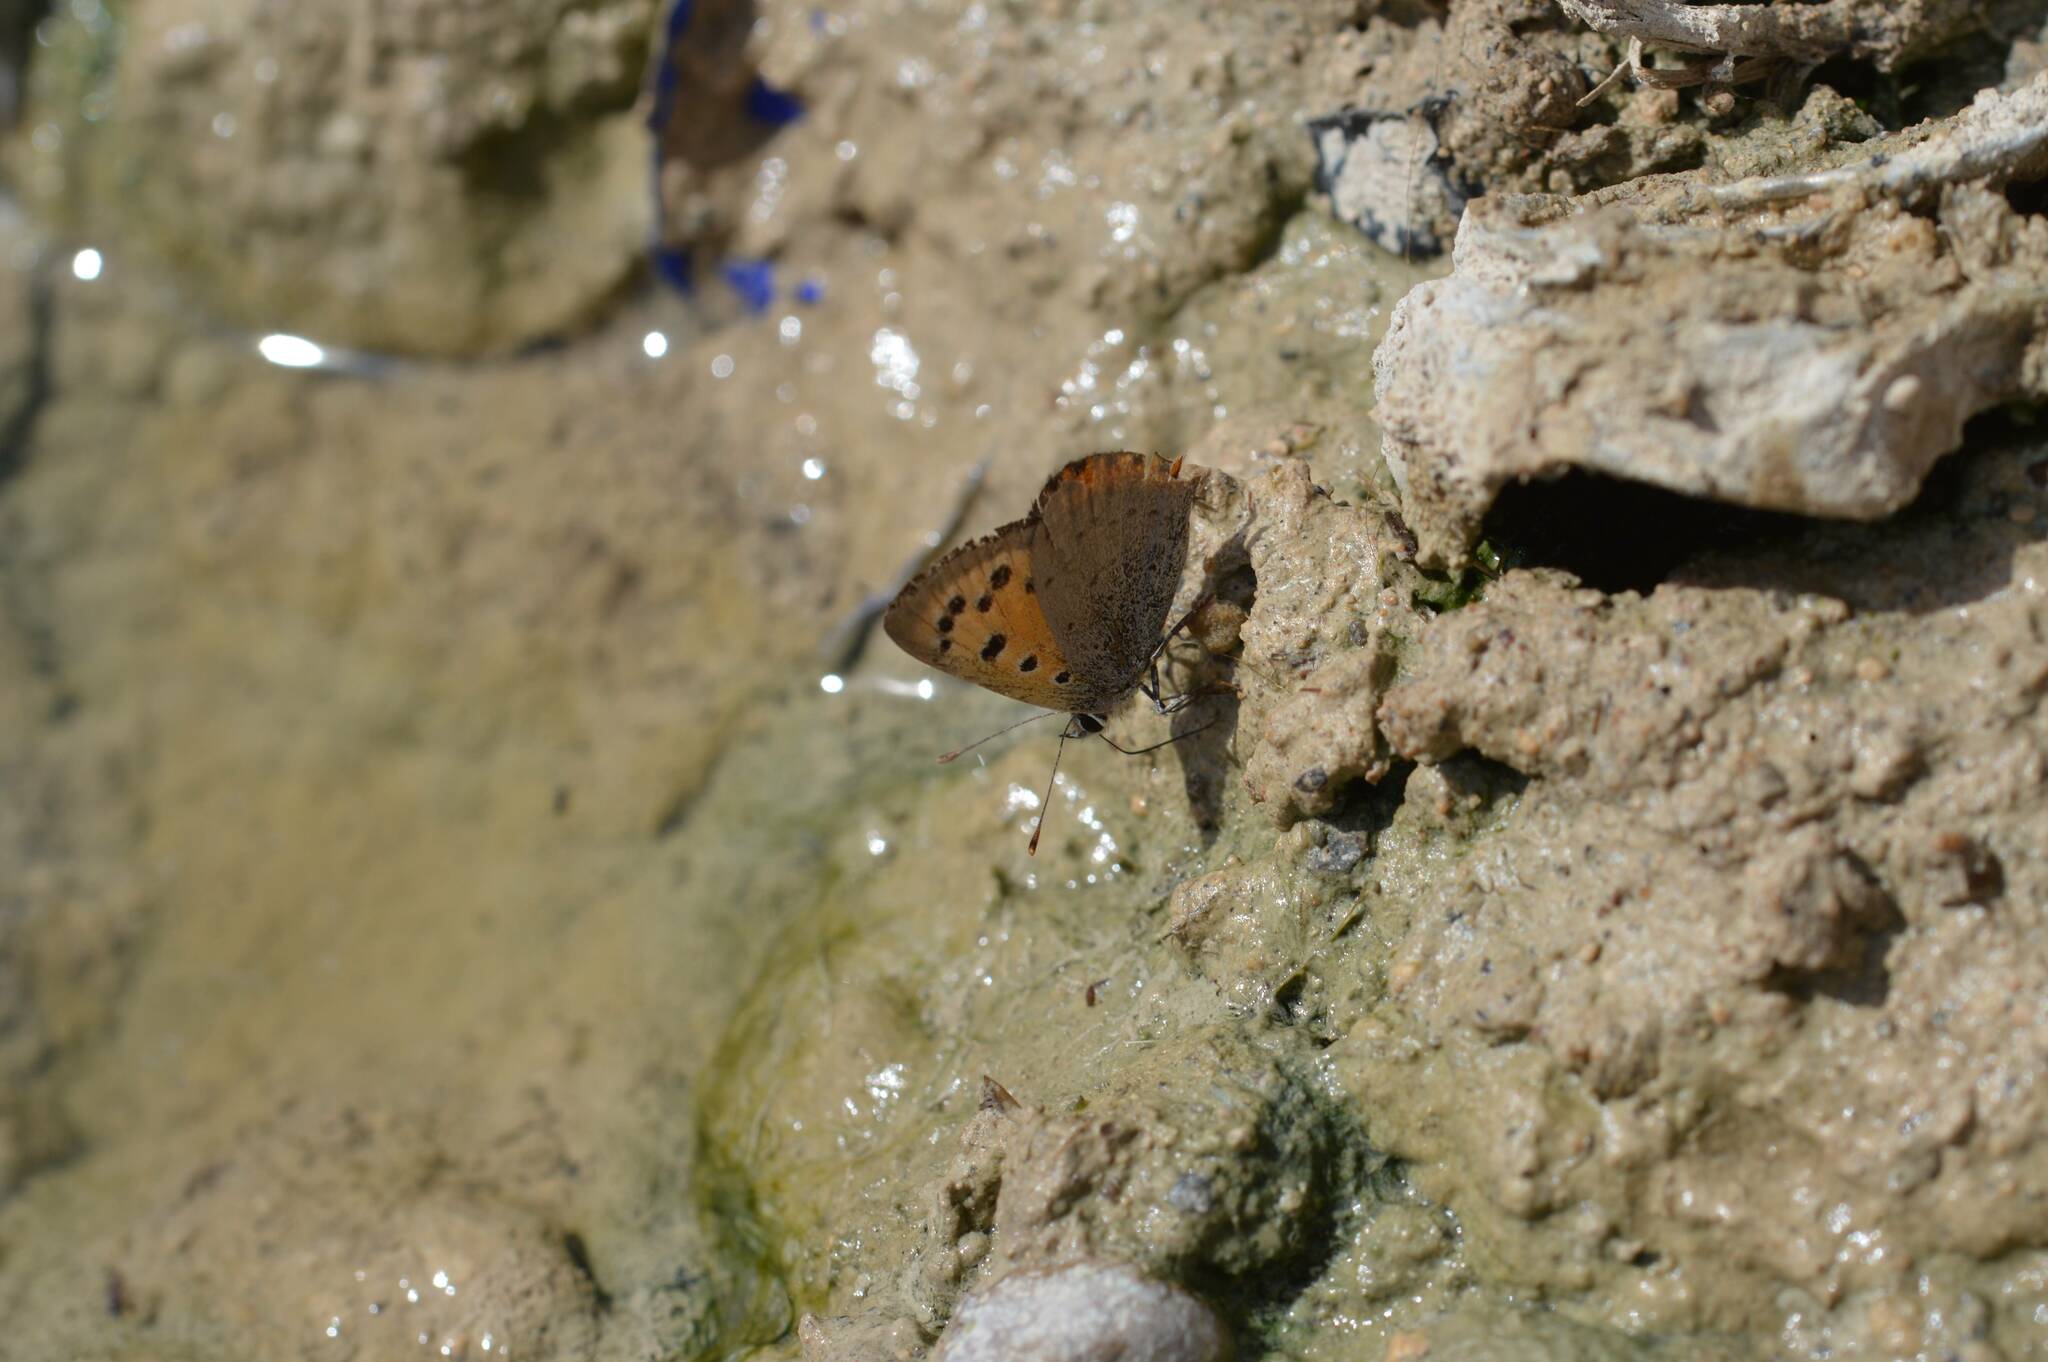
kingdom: Animalia
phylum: Arthropoda
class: Insecta
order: Lepidoptera
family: Lycaenidae
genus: Lycaena
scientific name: Lycaena phlaeas
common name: Small copper
